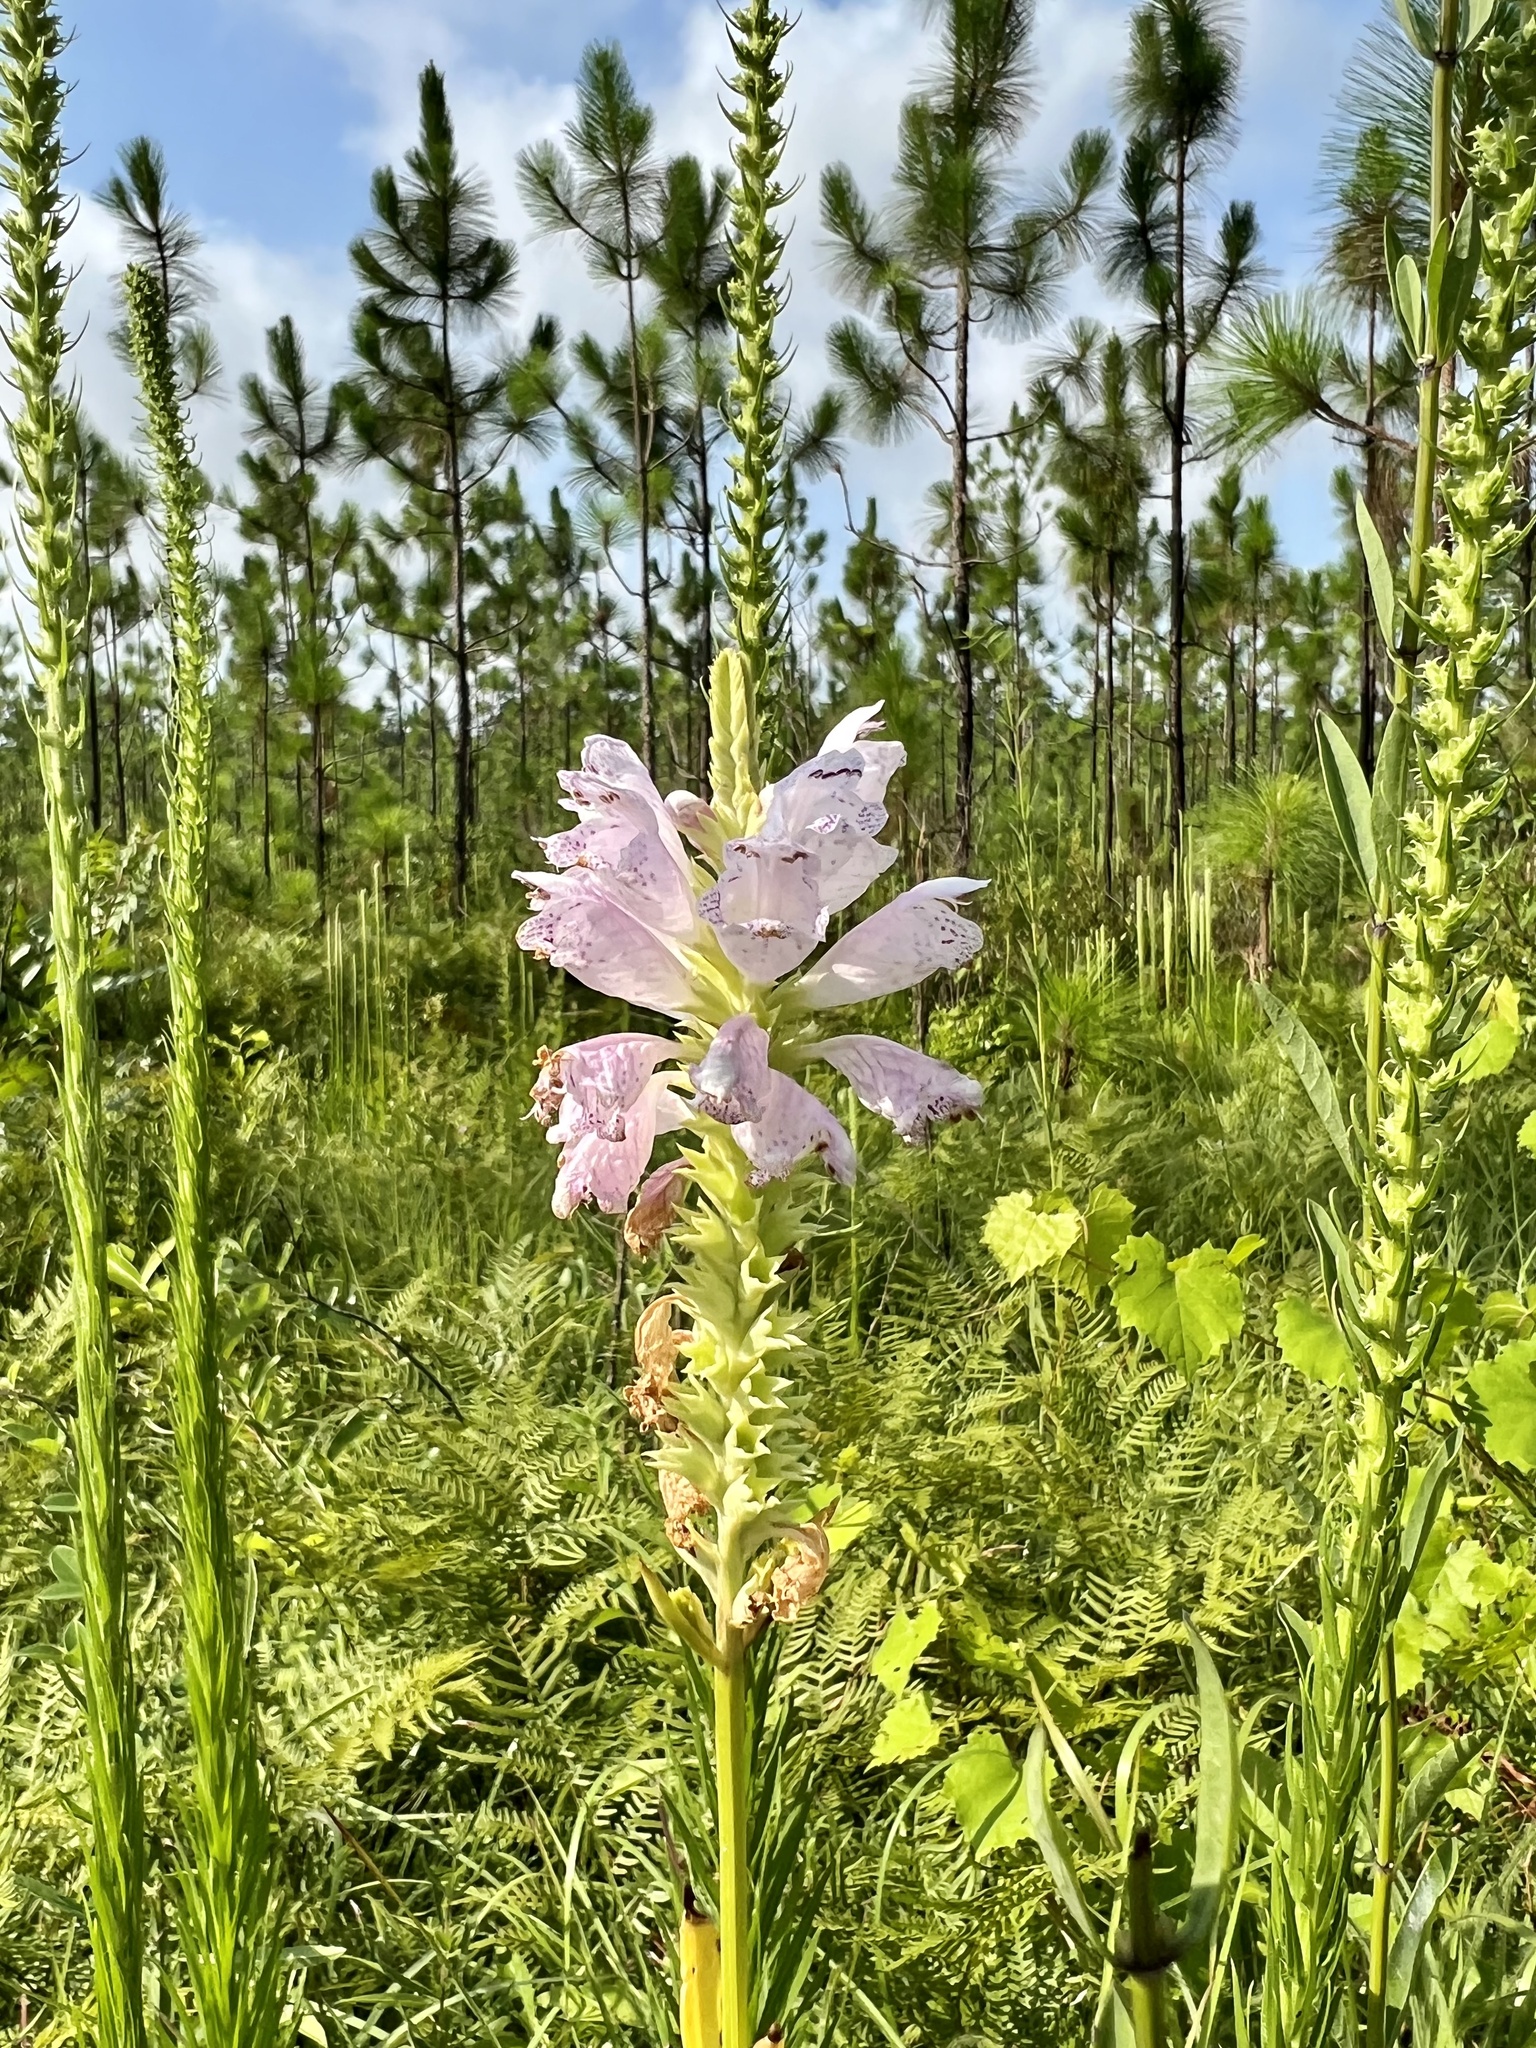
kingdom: Plantae
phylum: Tracheophyta
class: Magnoliopsida
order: Lamiales
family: Lamiaceae
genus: Physostegia
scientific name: Physostegia digitalis
